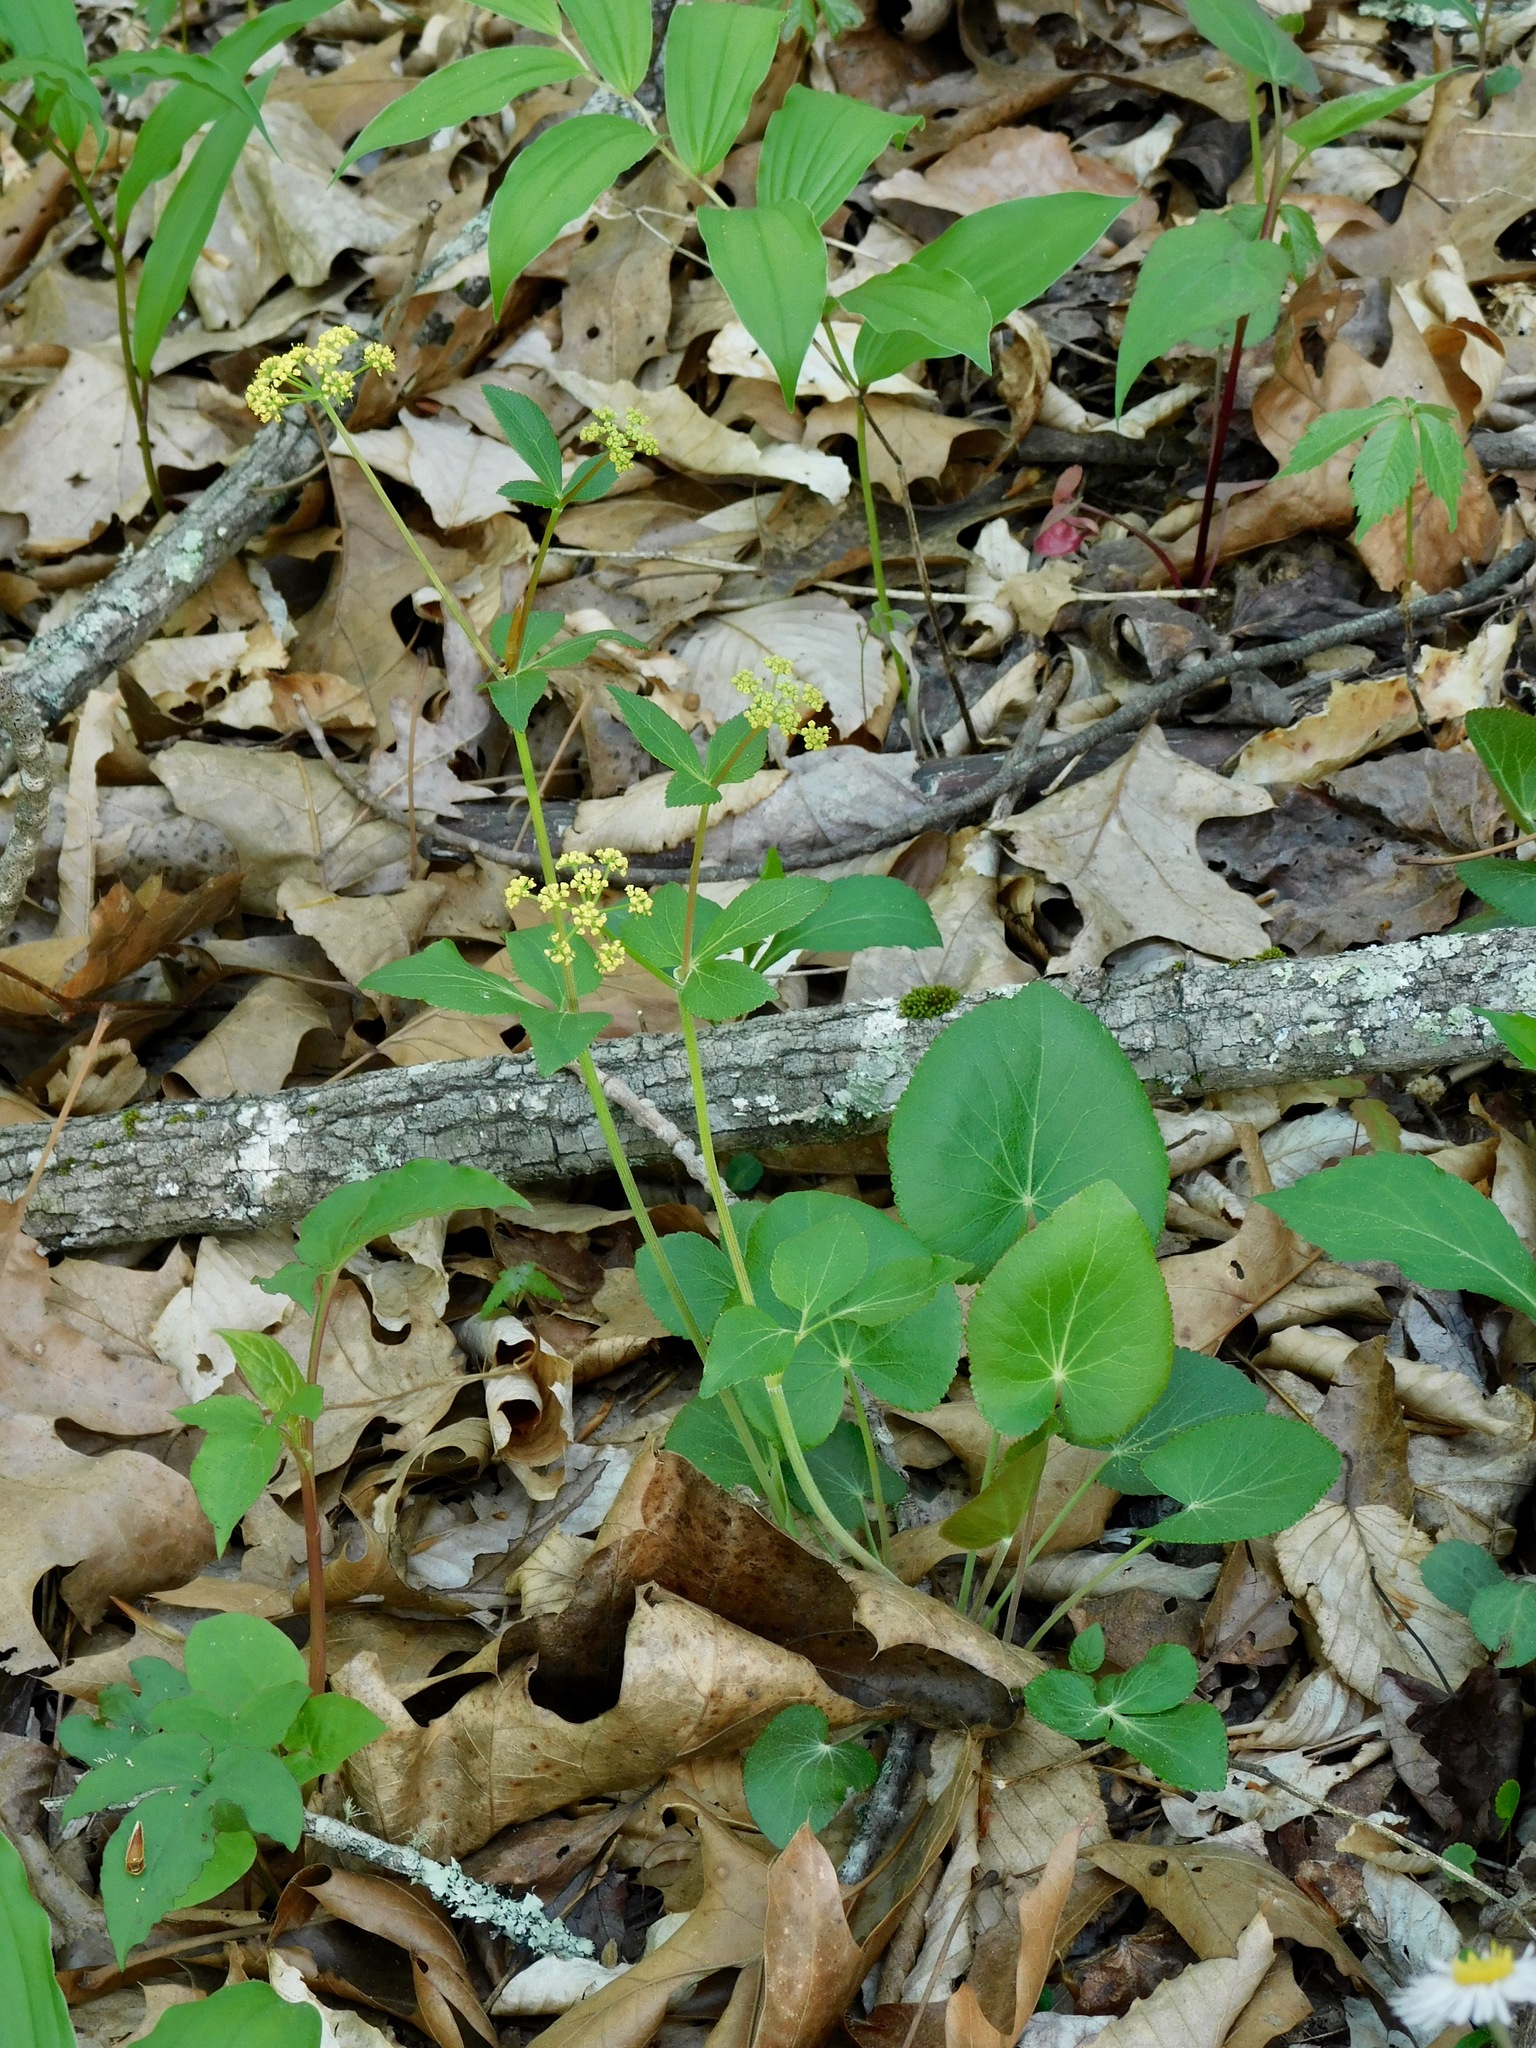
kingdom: Plantae
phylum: Tracheophyta
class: Magnoliopsida
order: Apiales
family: Apiaceae
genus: Zizia
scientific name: Zizia aptera
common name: Heart-leaved alexanders
